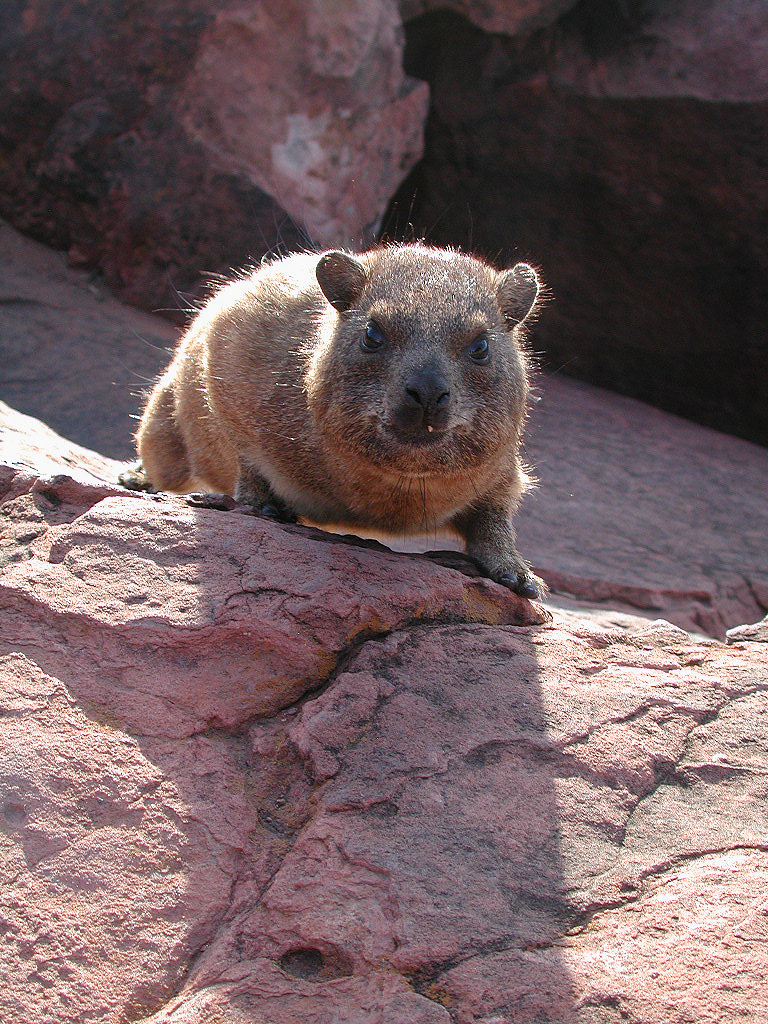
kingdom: Animalia
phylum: Chordata
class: Mammalia
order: Hyracoidea
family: Procaviidae
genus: Procavia
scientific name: Procavia capensis
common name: Rock hyrax
